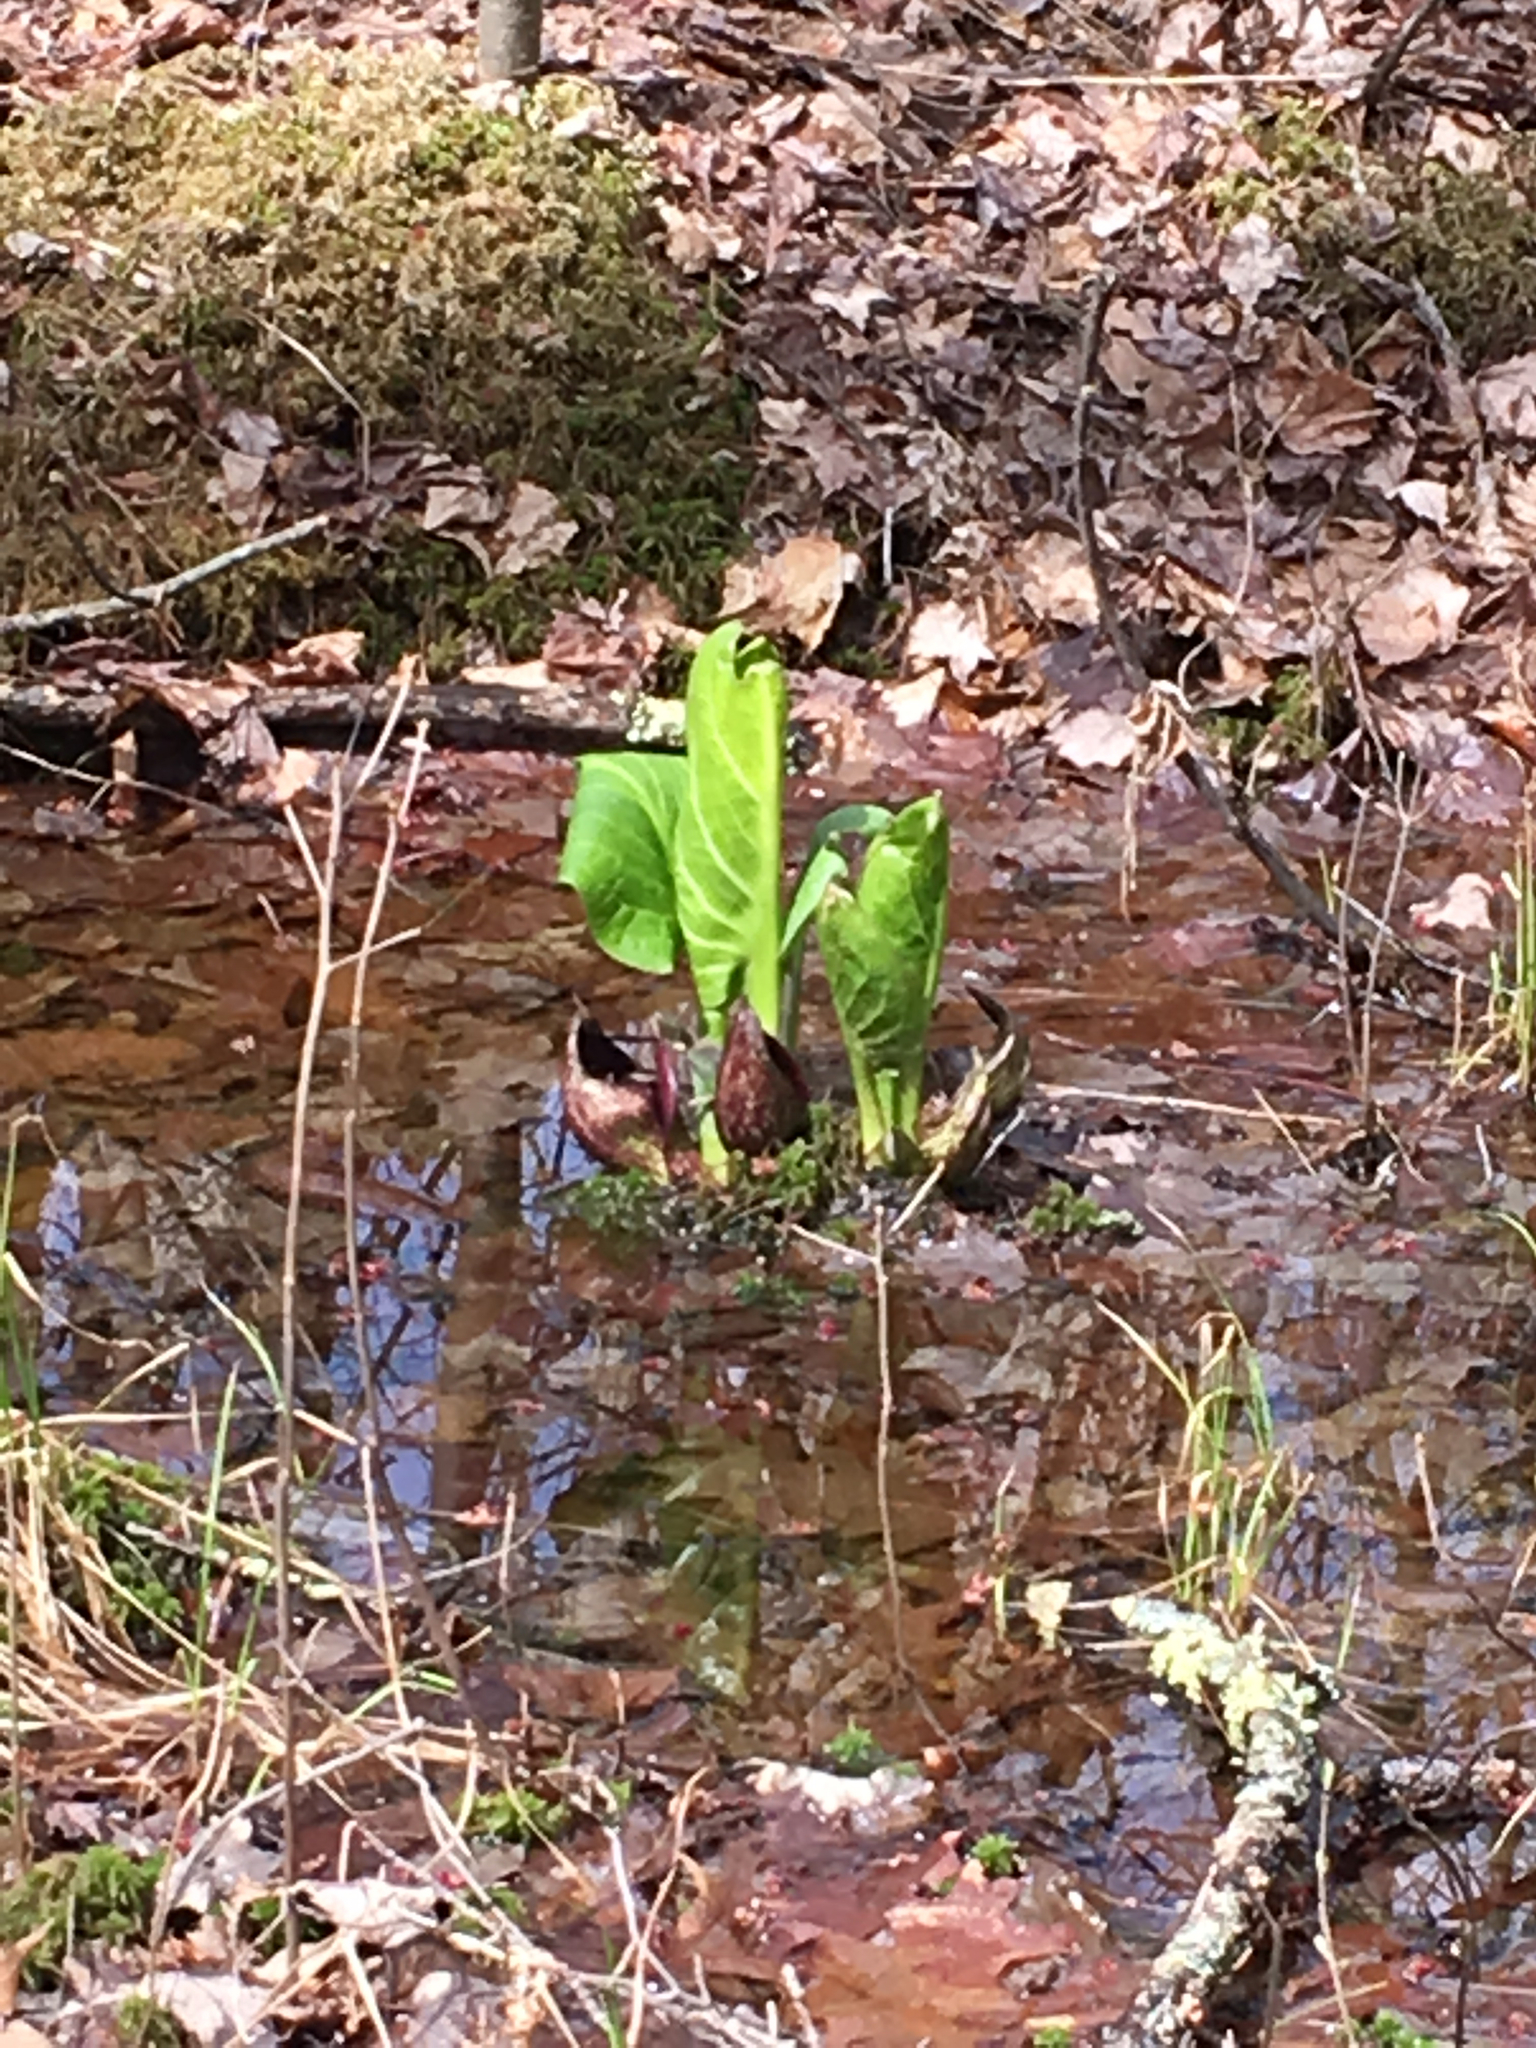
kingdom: Plantae
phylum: Tracheophyta
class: Liliopsida
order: Alismatales
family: Araceae
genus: Symplocarpus
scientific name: Symplocarpus foetidus
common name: Eastern skunk cabbage
